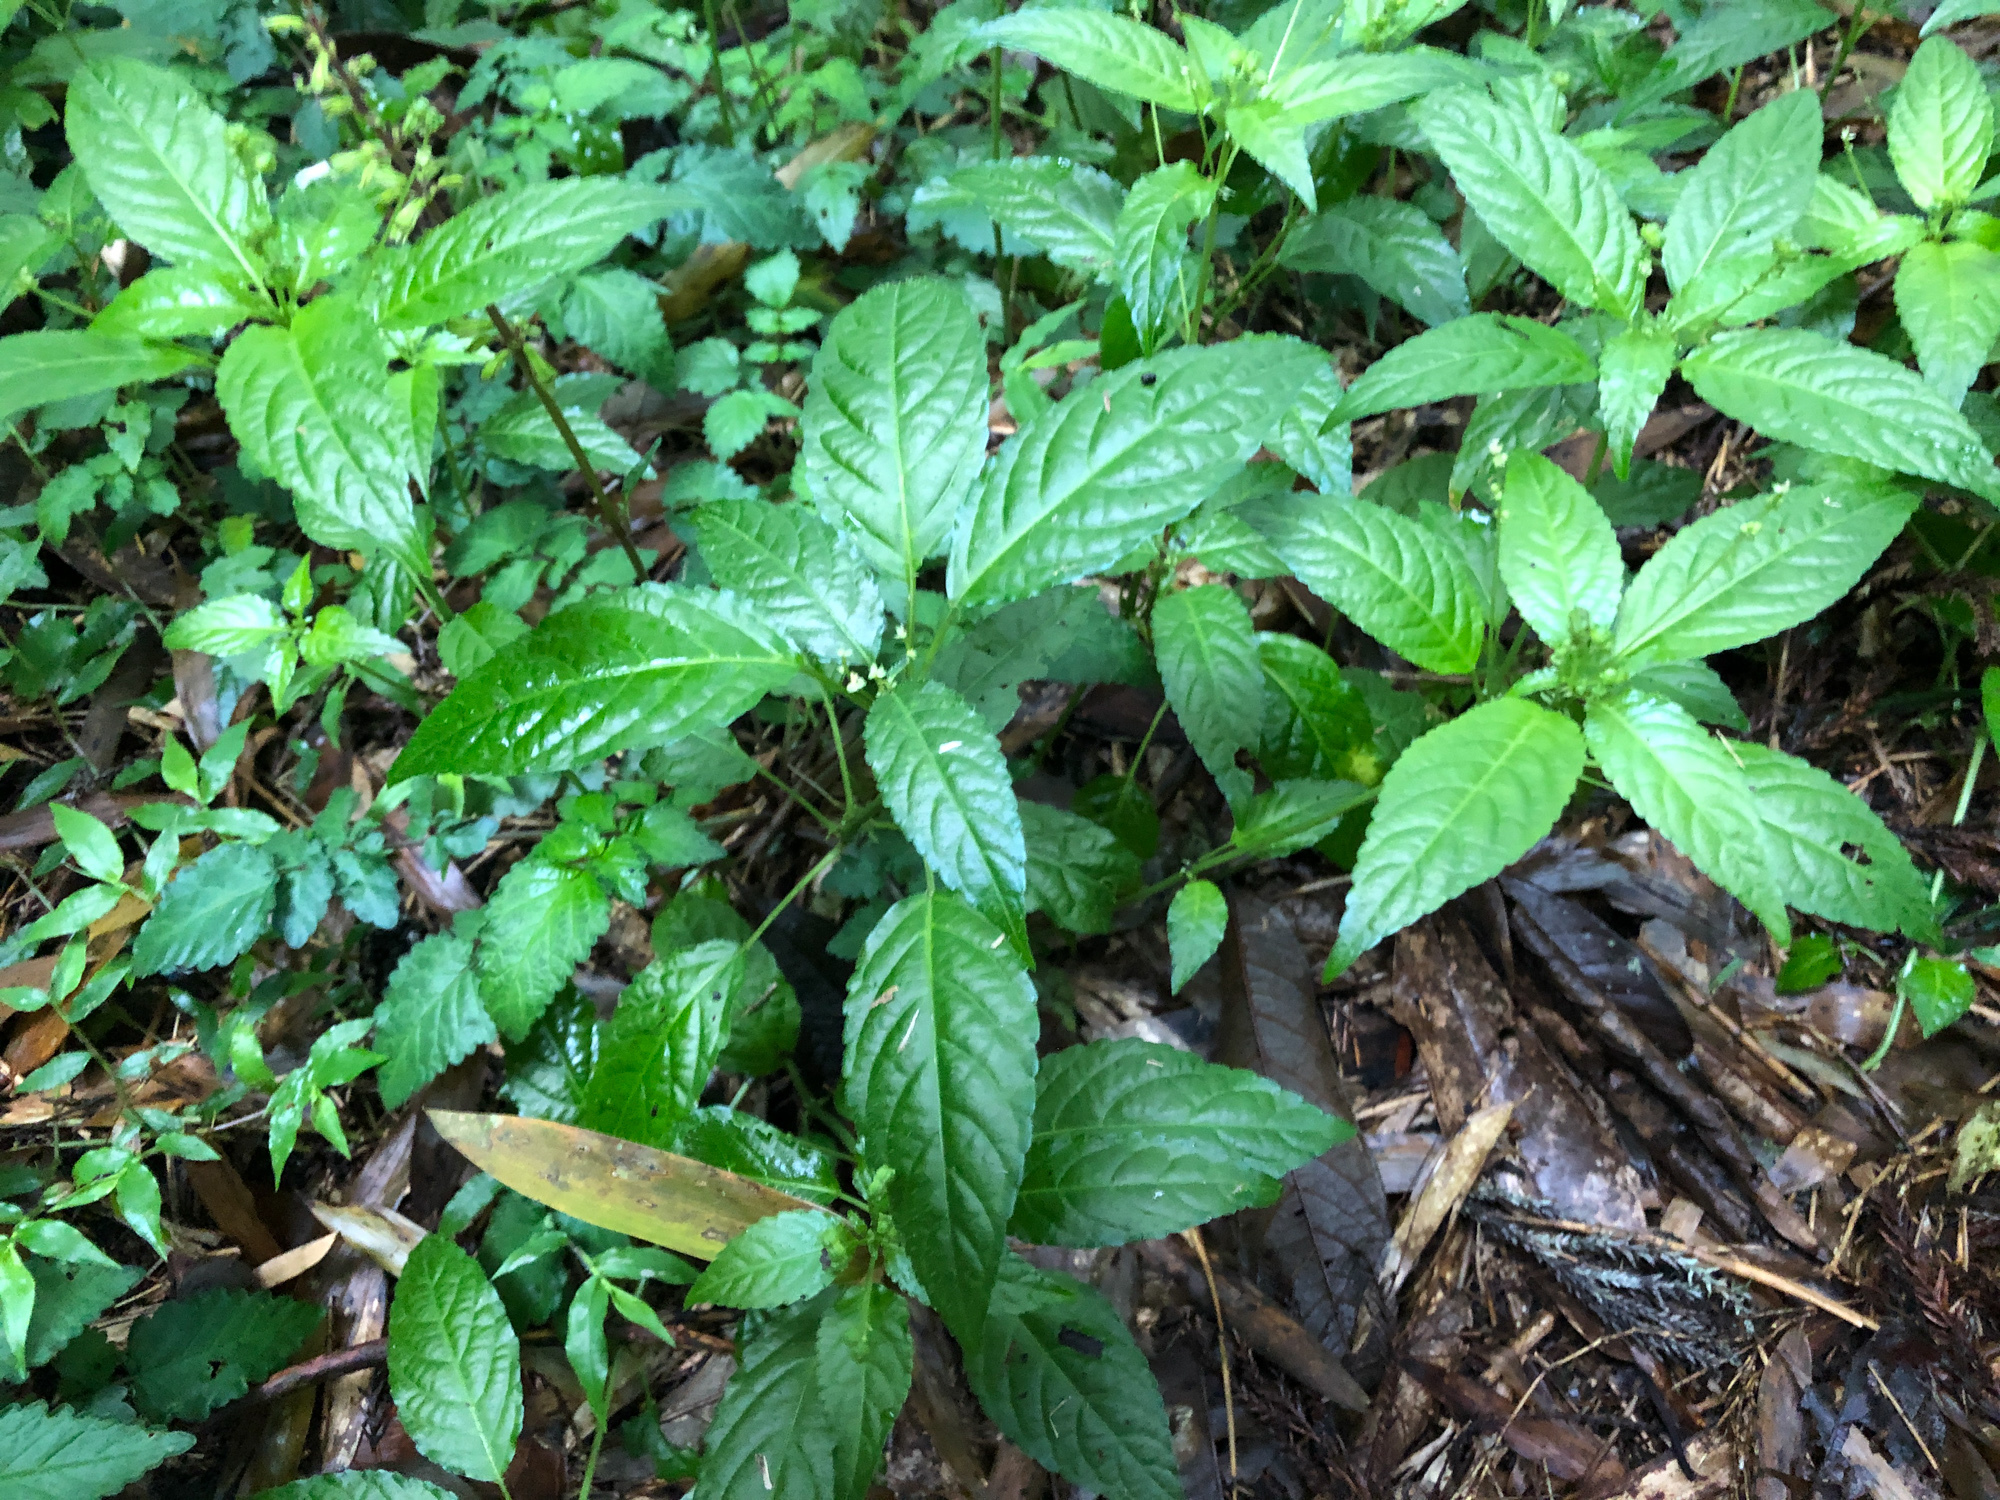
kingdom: Plantae
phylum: Tracheophyta
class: Magnoliopsida
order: Malpighiales
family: Euphorbiaceae
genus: Mercurialis
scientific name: Mercurialis leiocarpa
